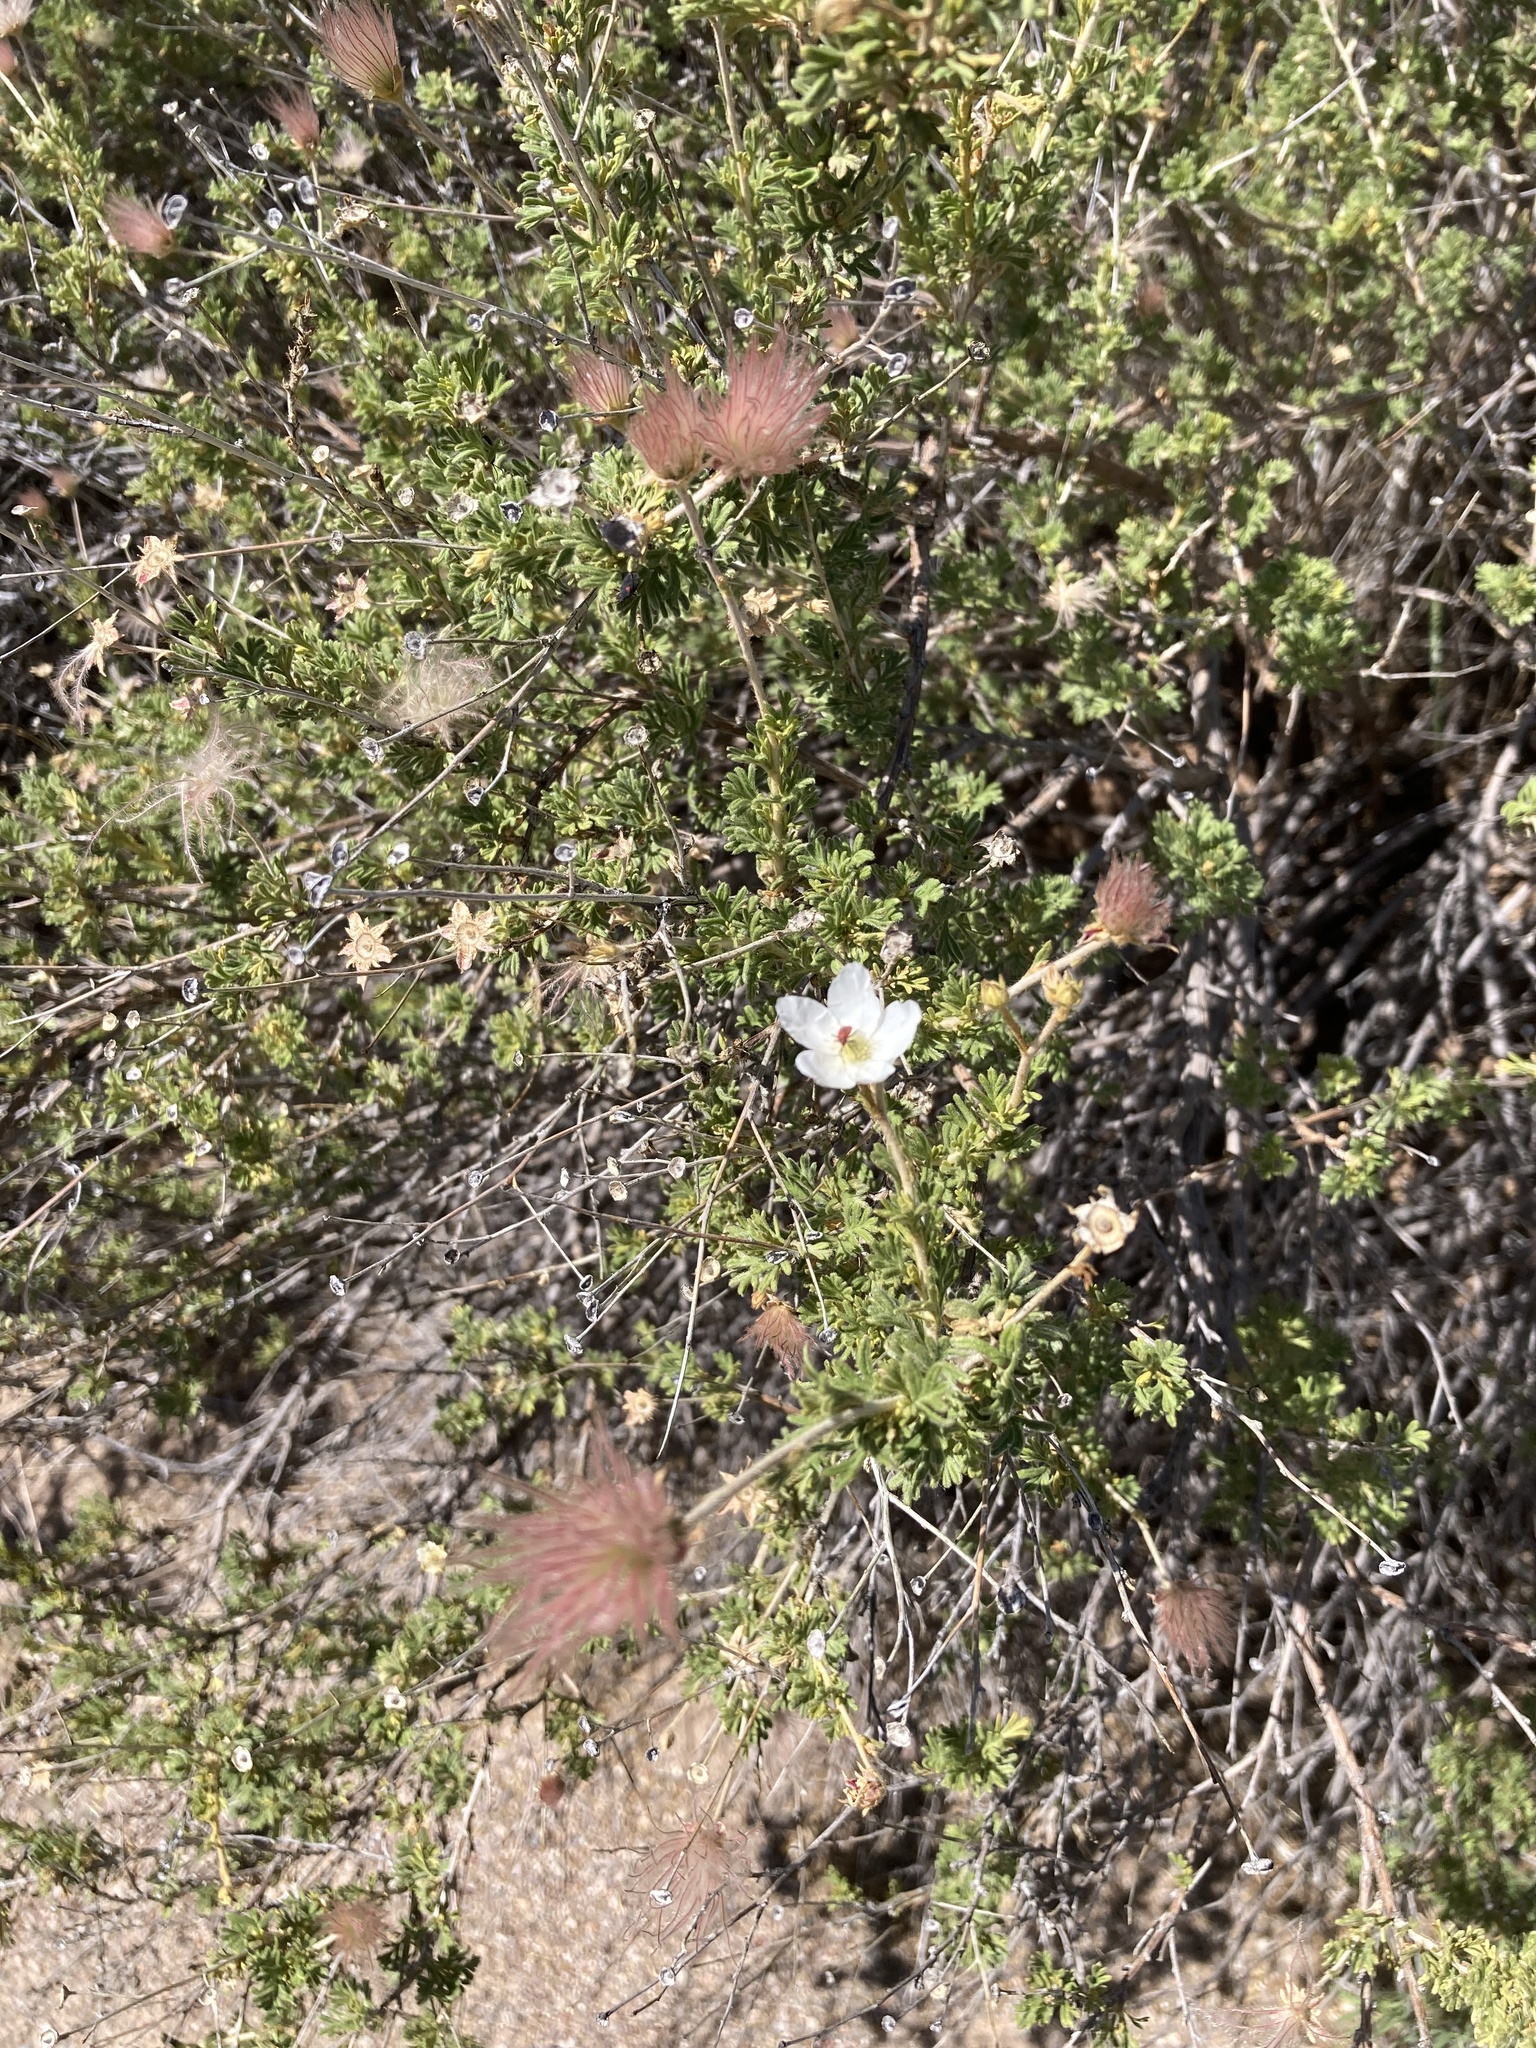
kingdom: Plantae
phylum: Tracheophyta
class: Magnoliopsida
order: Rosales
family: Rosaceae
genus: Fallugia
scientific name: Fallugia paradoxa
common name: Apache-plume
